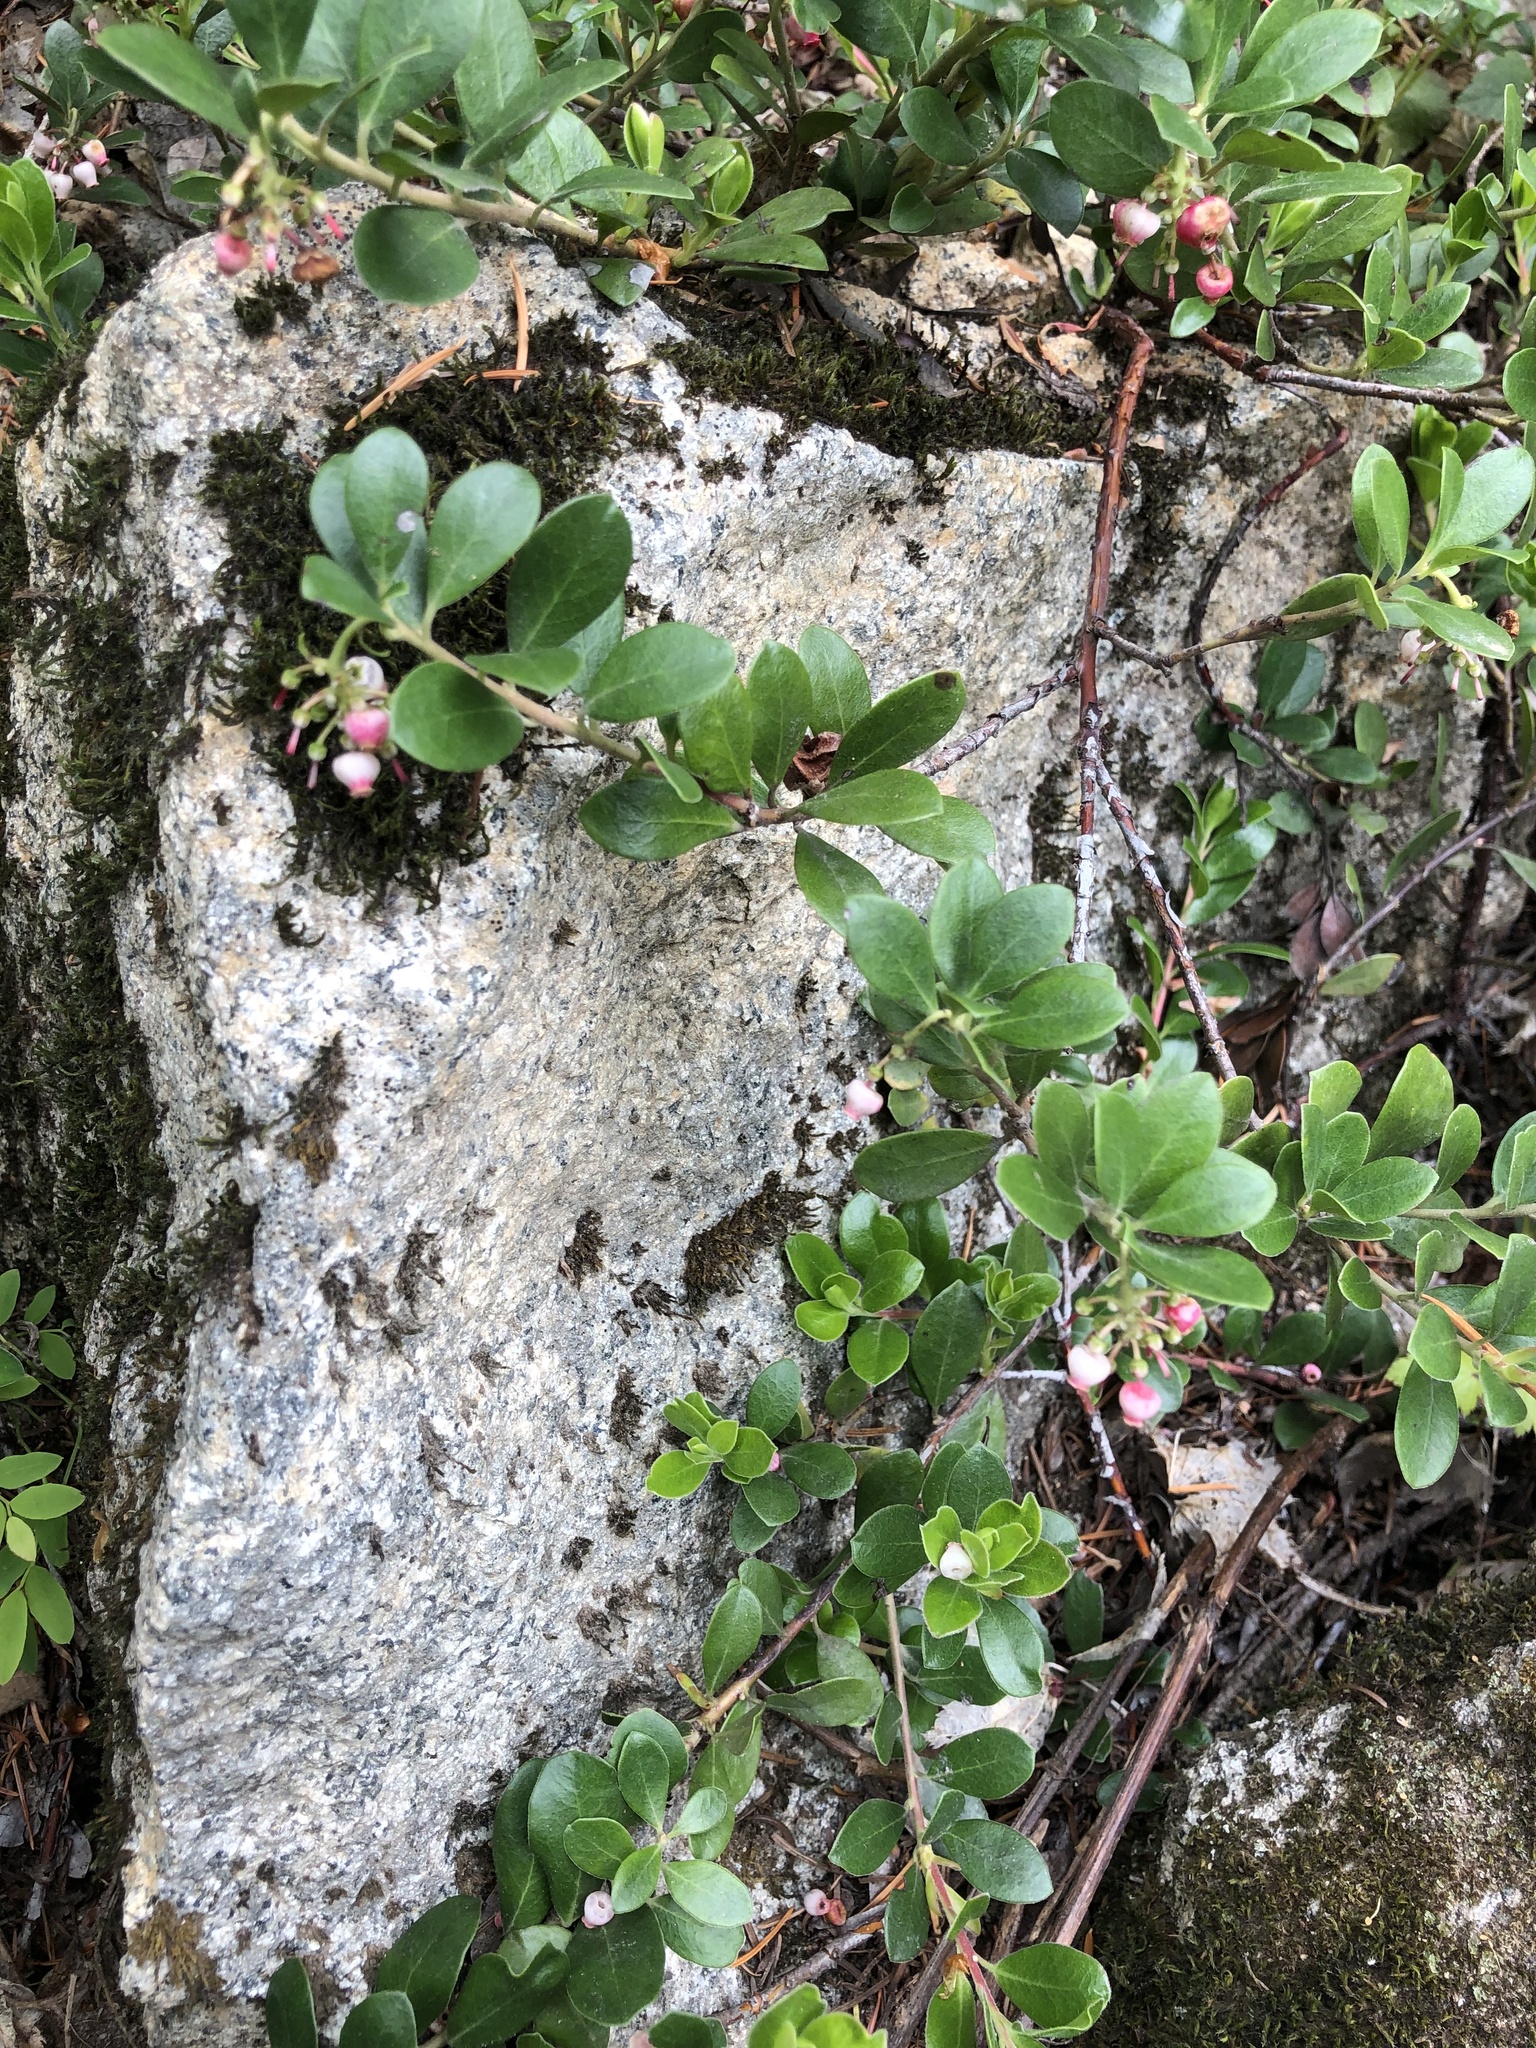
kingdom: Plantae
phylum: Tracheophyta
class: Magnoliopsida
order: Ericales
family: Ericaceae
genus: Arctostaphylos
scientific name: Arctostaphylos uva-ursi
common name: Bearberry
